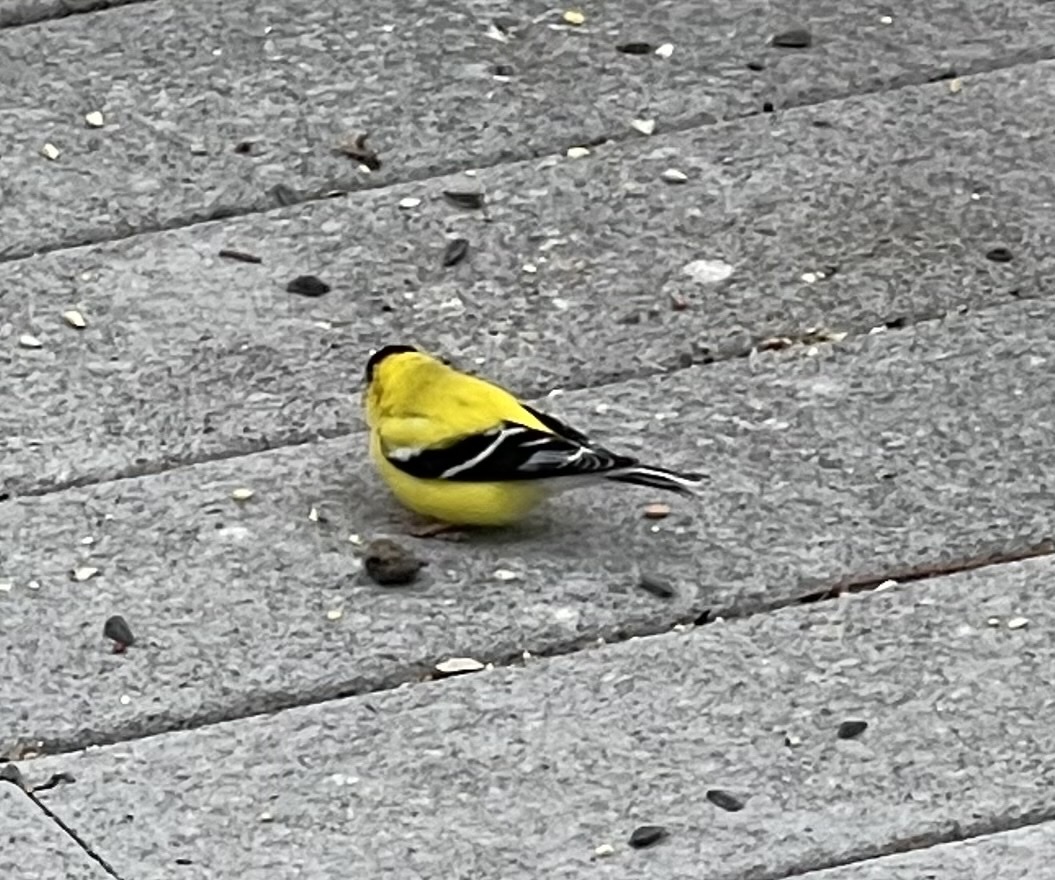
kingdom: Animalia
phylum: Chordata
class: Aves
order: Passeriformes
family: Fringillidae
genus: Spinus
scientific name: Spinus tristis
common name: American goldfinch
